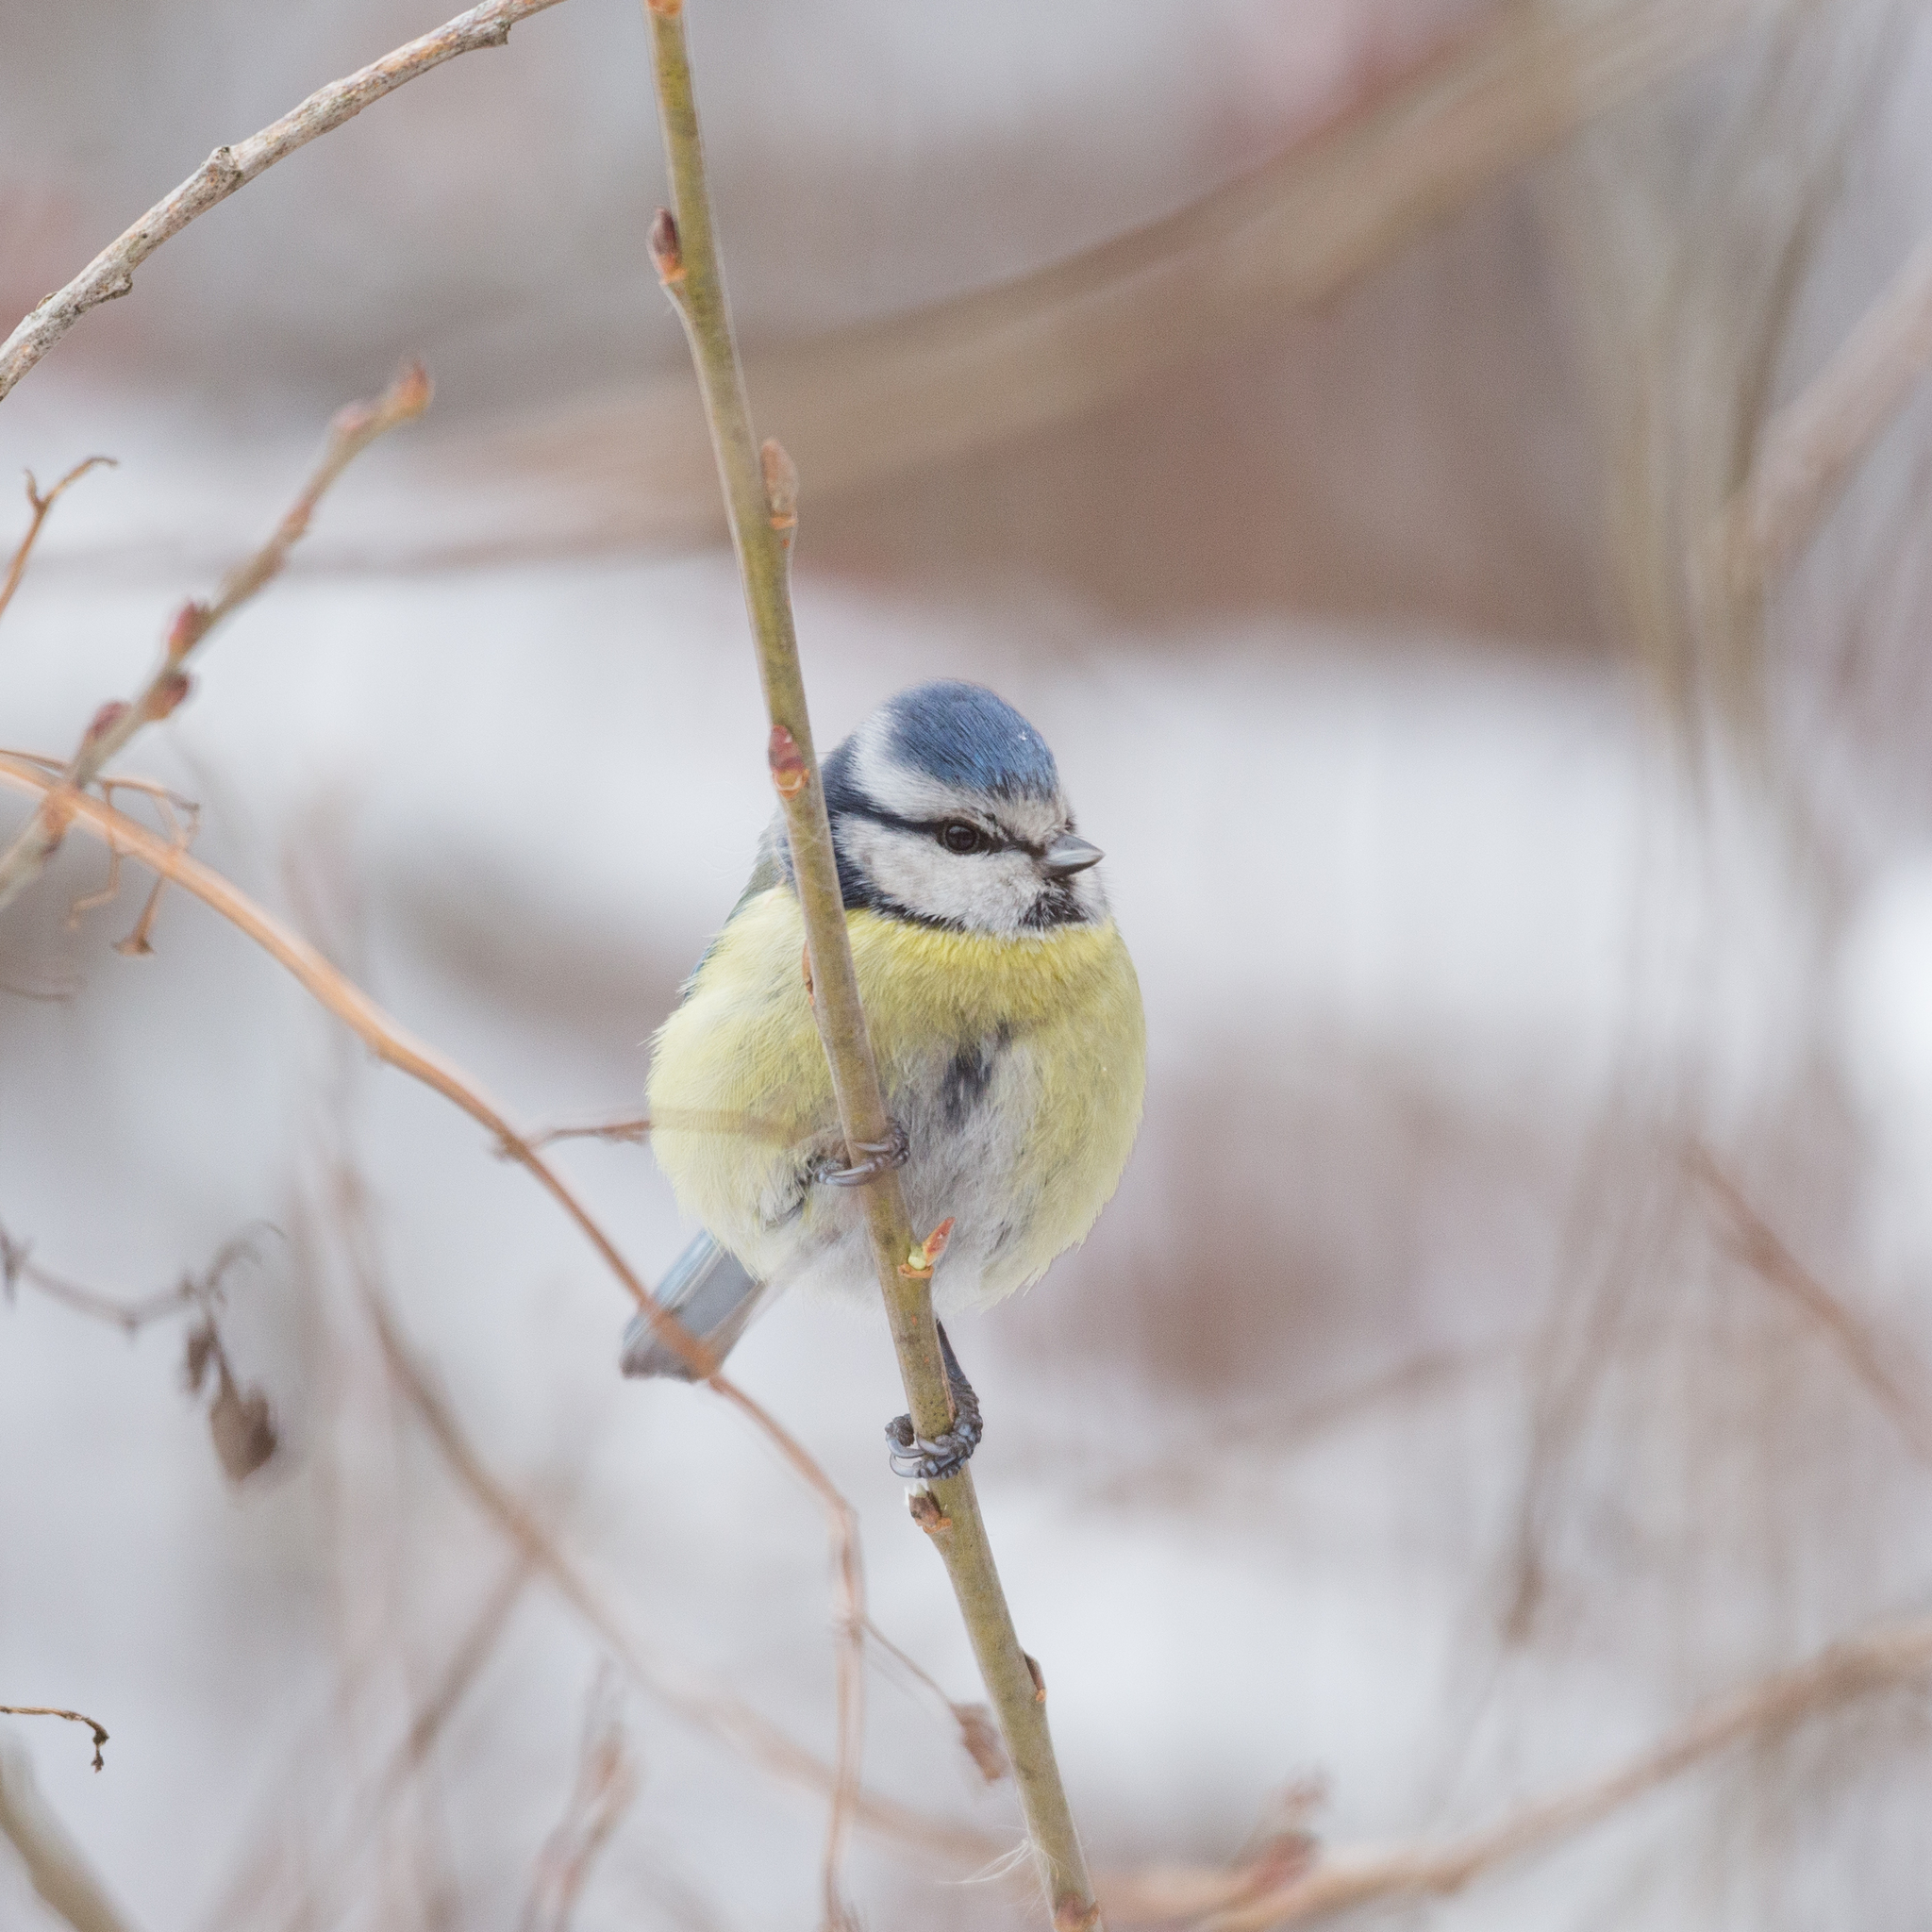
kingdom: Animalia
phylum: Chordata
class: Aves
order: Passeriformes
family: Paridae
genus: Cyanistes
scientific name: Cyanistes caeruleus
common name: Eurasian blue tit
